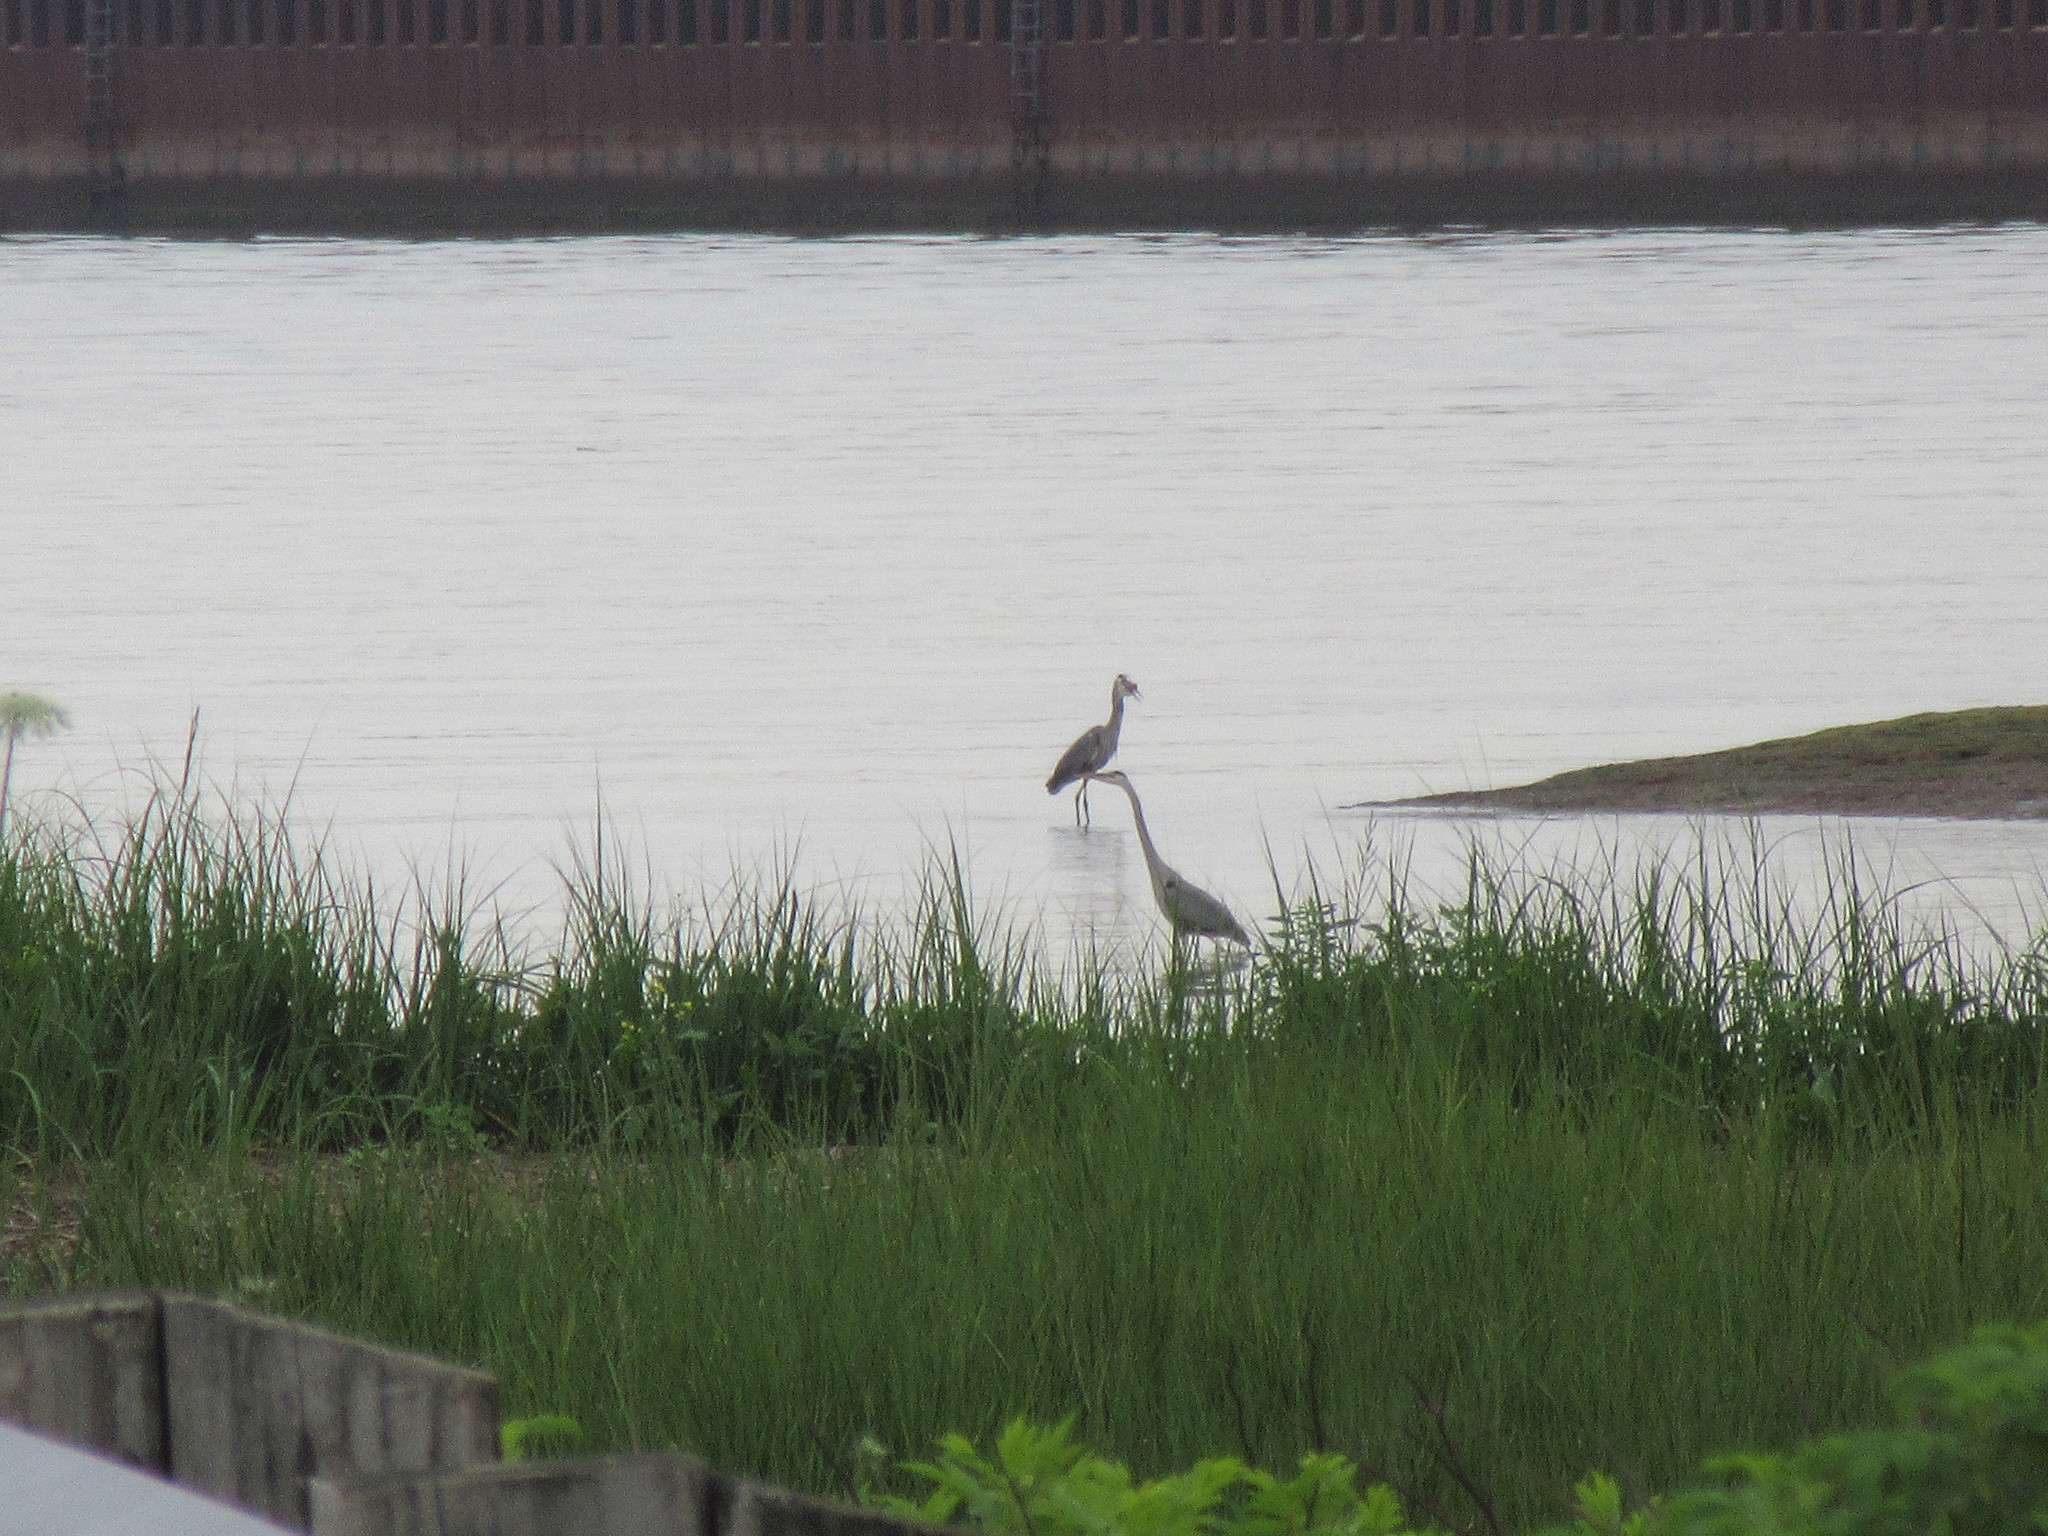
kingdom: Animalia
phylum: Chordata
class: Aves
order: Pelecaniformes
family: Ardeidae
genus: Ardea
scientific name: Ardea herodias
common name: Great blue heron
